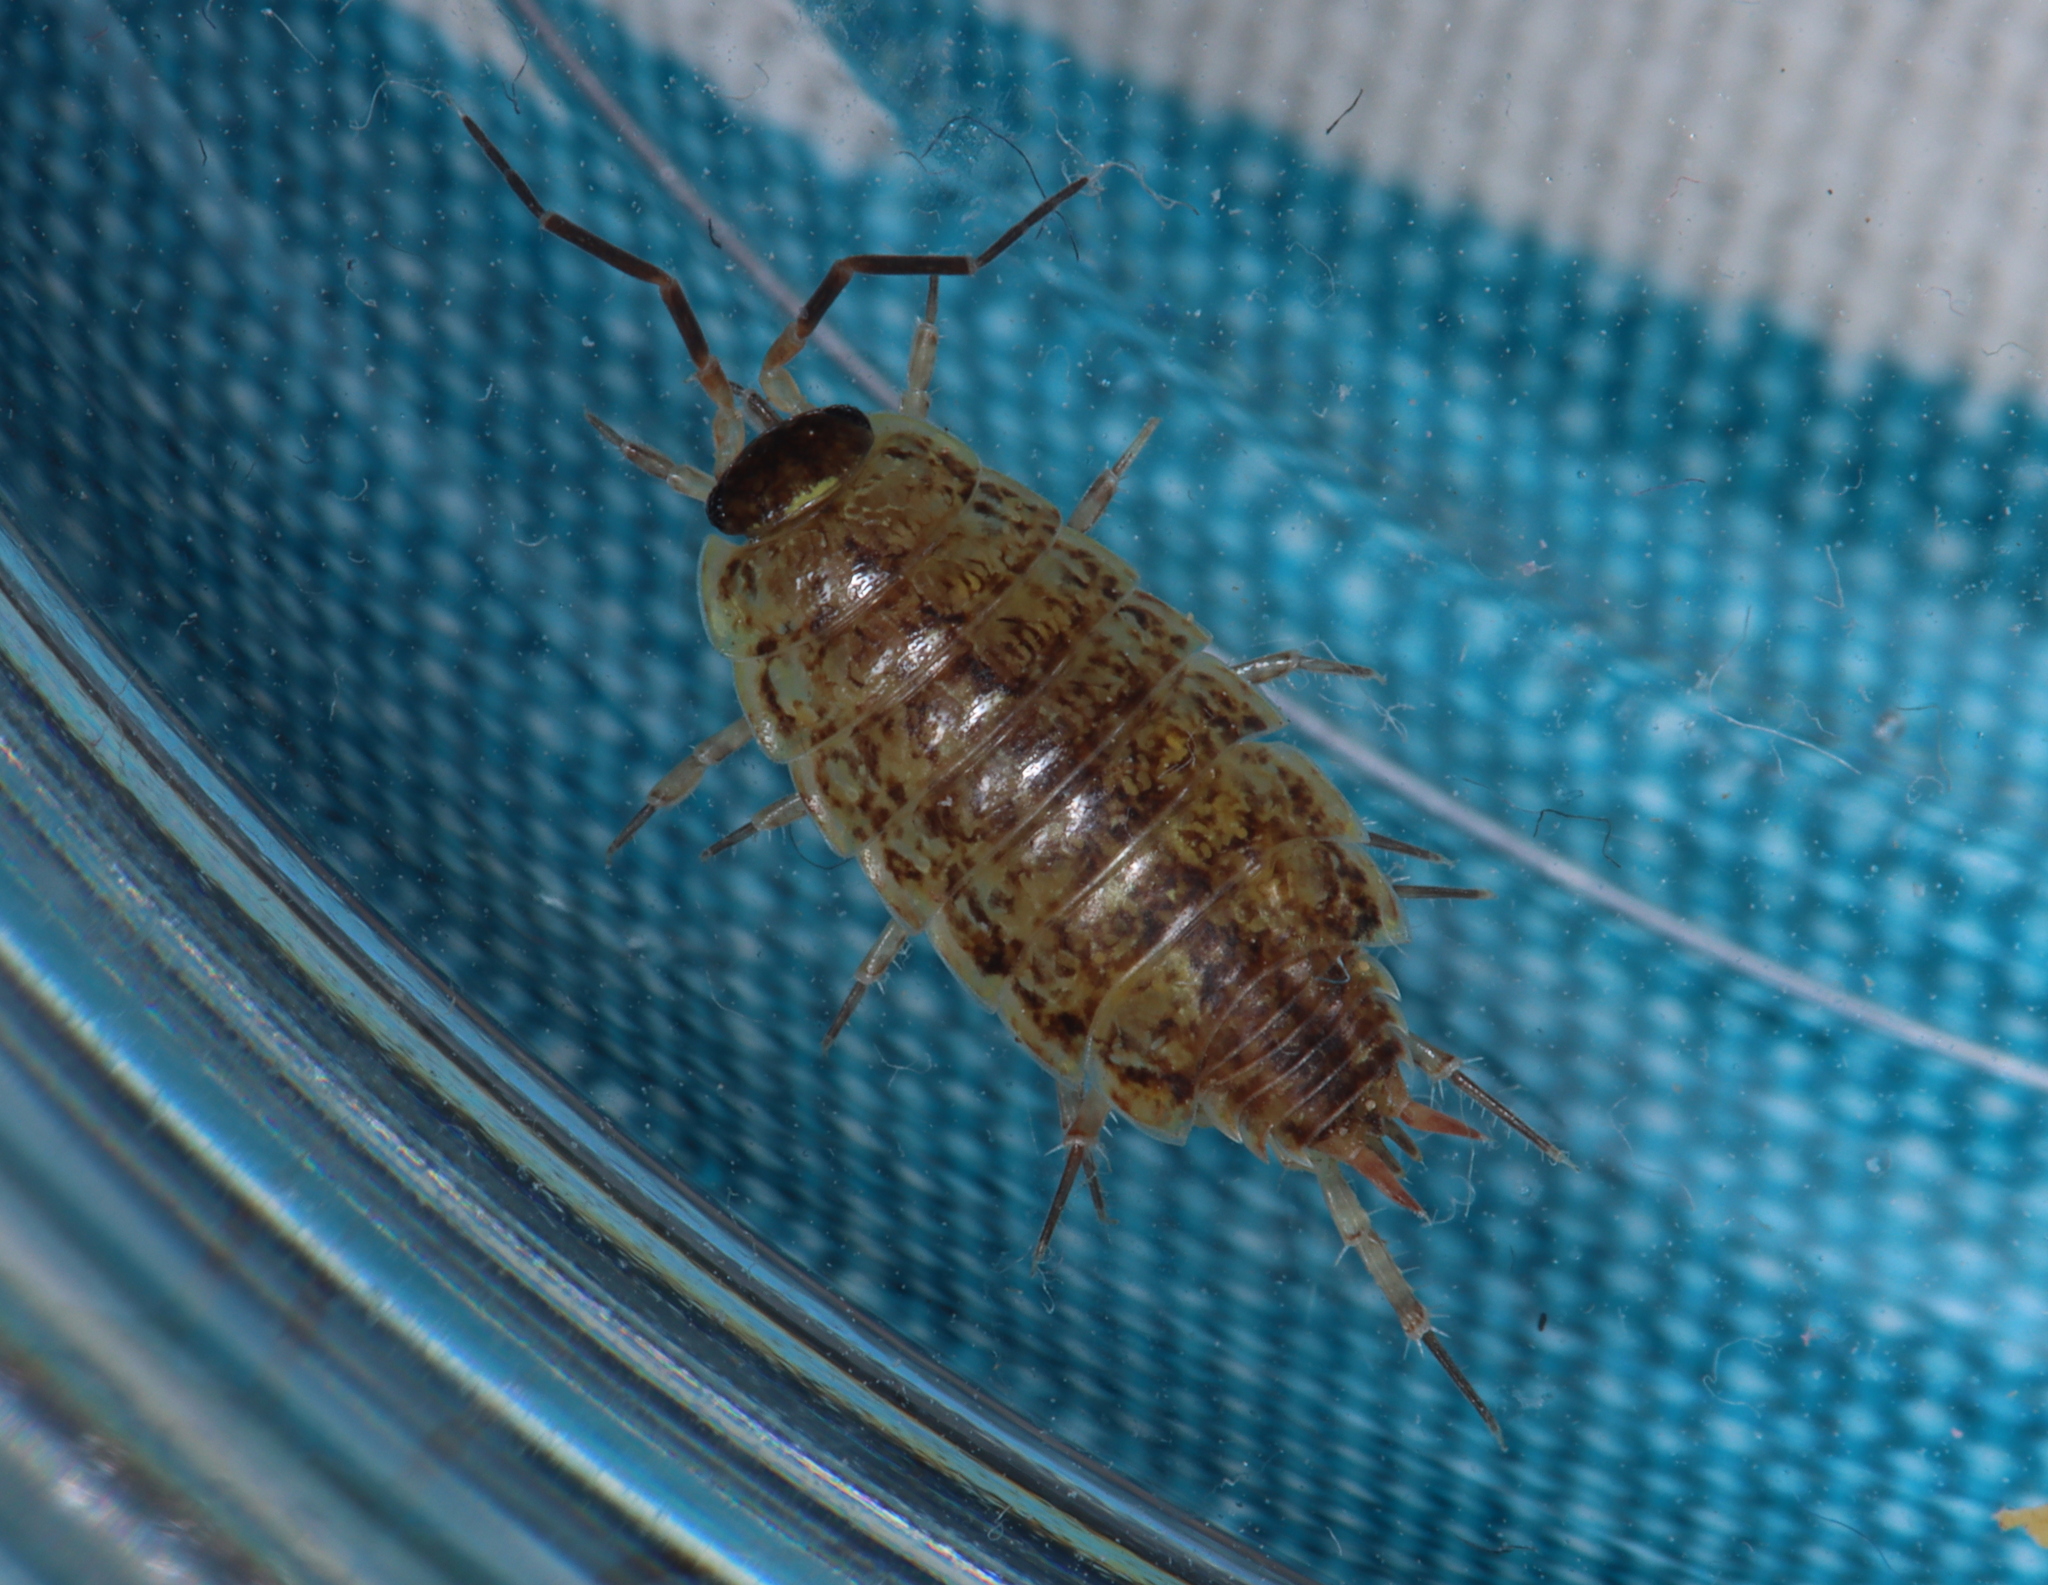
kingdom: Animalia
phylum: Arthropoda
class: Malacostraca
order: Isopoda
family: Philosciidae
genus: Philoscia
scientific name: Philoscia muscorum
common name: Common striped woodlouse
